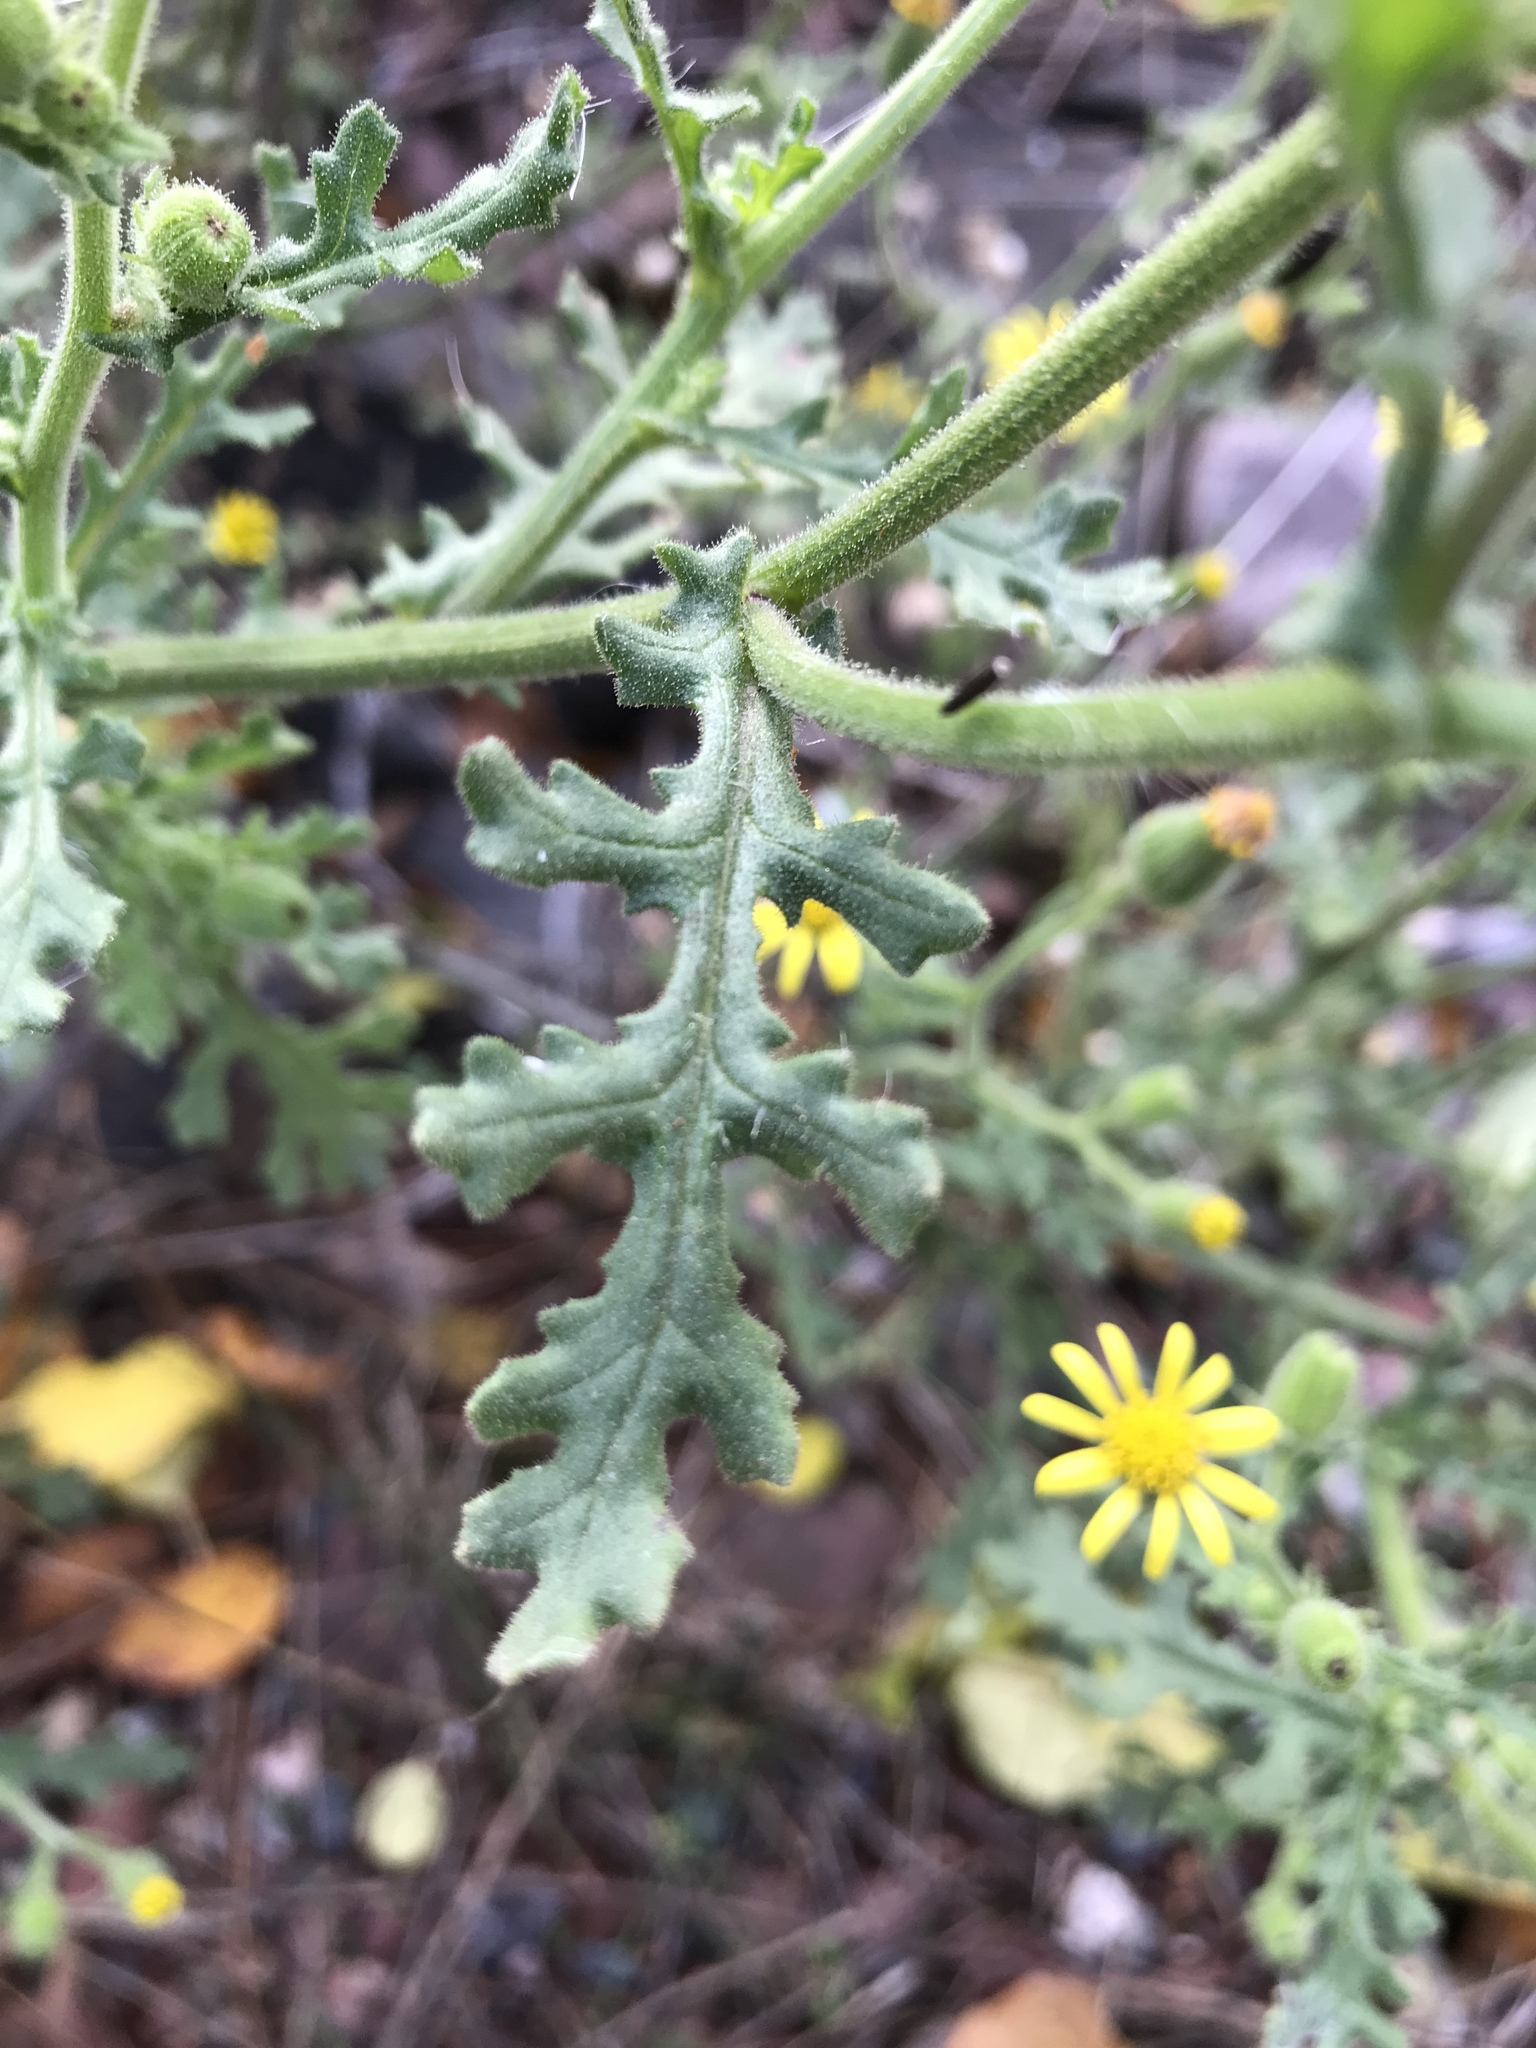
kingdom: Plantae
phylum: Tracheophyta
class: Magnoliopsida
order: Asterales
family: Asteraceae
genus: Senecio
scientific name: Senecio vulgaris
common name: Old-man-in-the-spring
